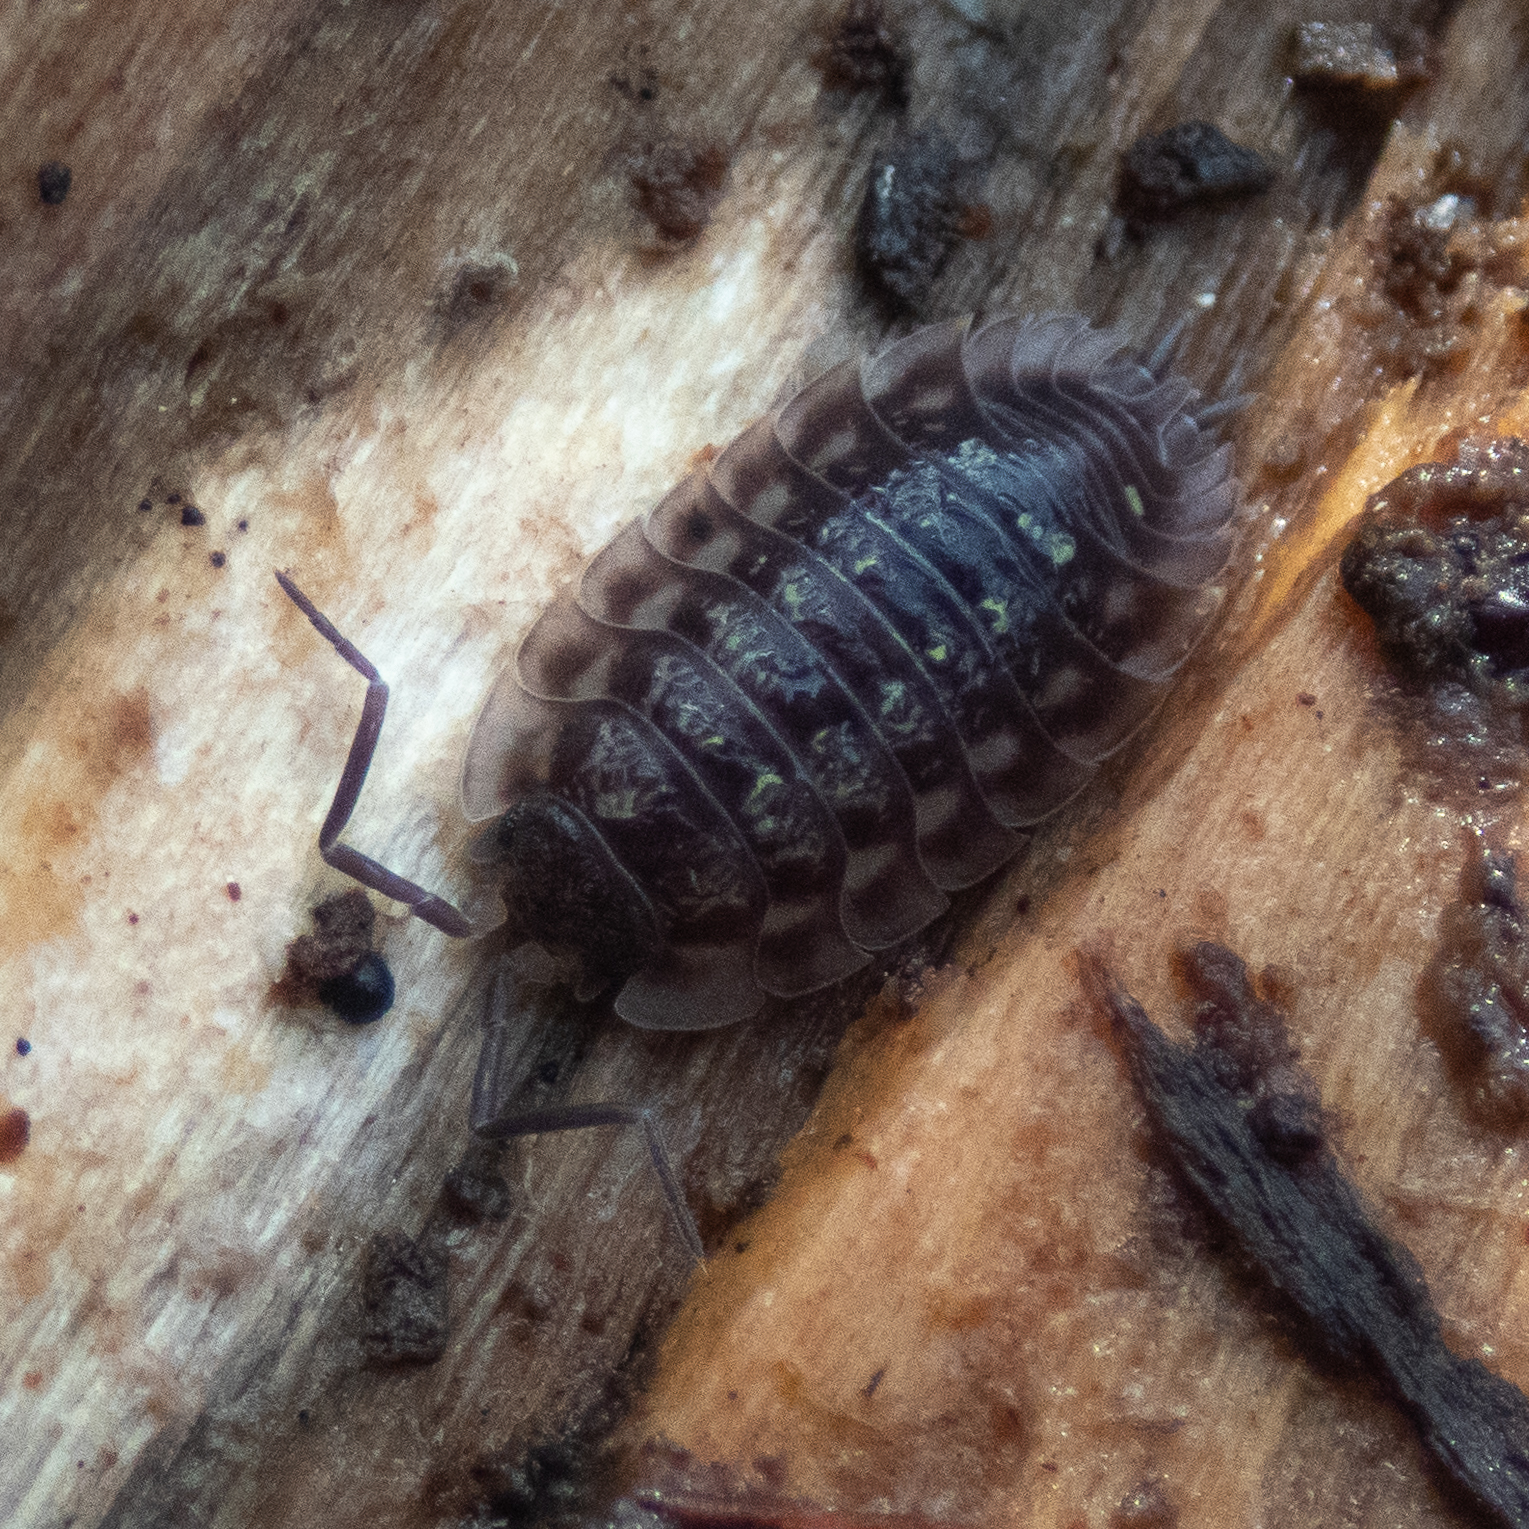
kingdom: Animalia
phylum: Arthropoda
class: Malacostraca
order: Isopoda
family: Oniscidae
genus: Oniscus
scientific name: Oniscus asellus
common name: Common shiny woodlouse
